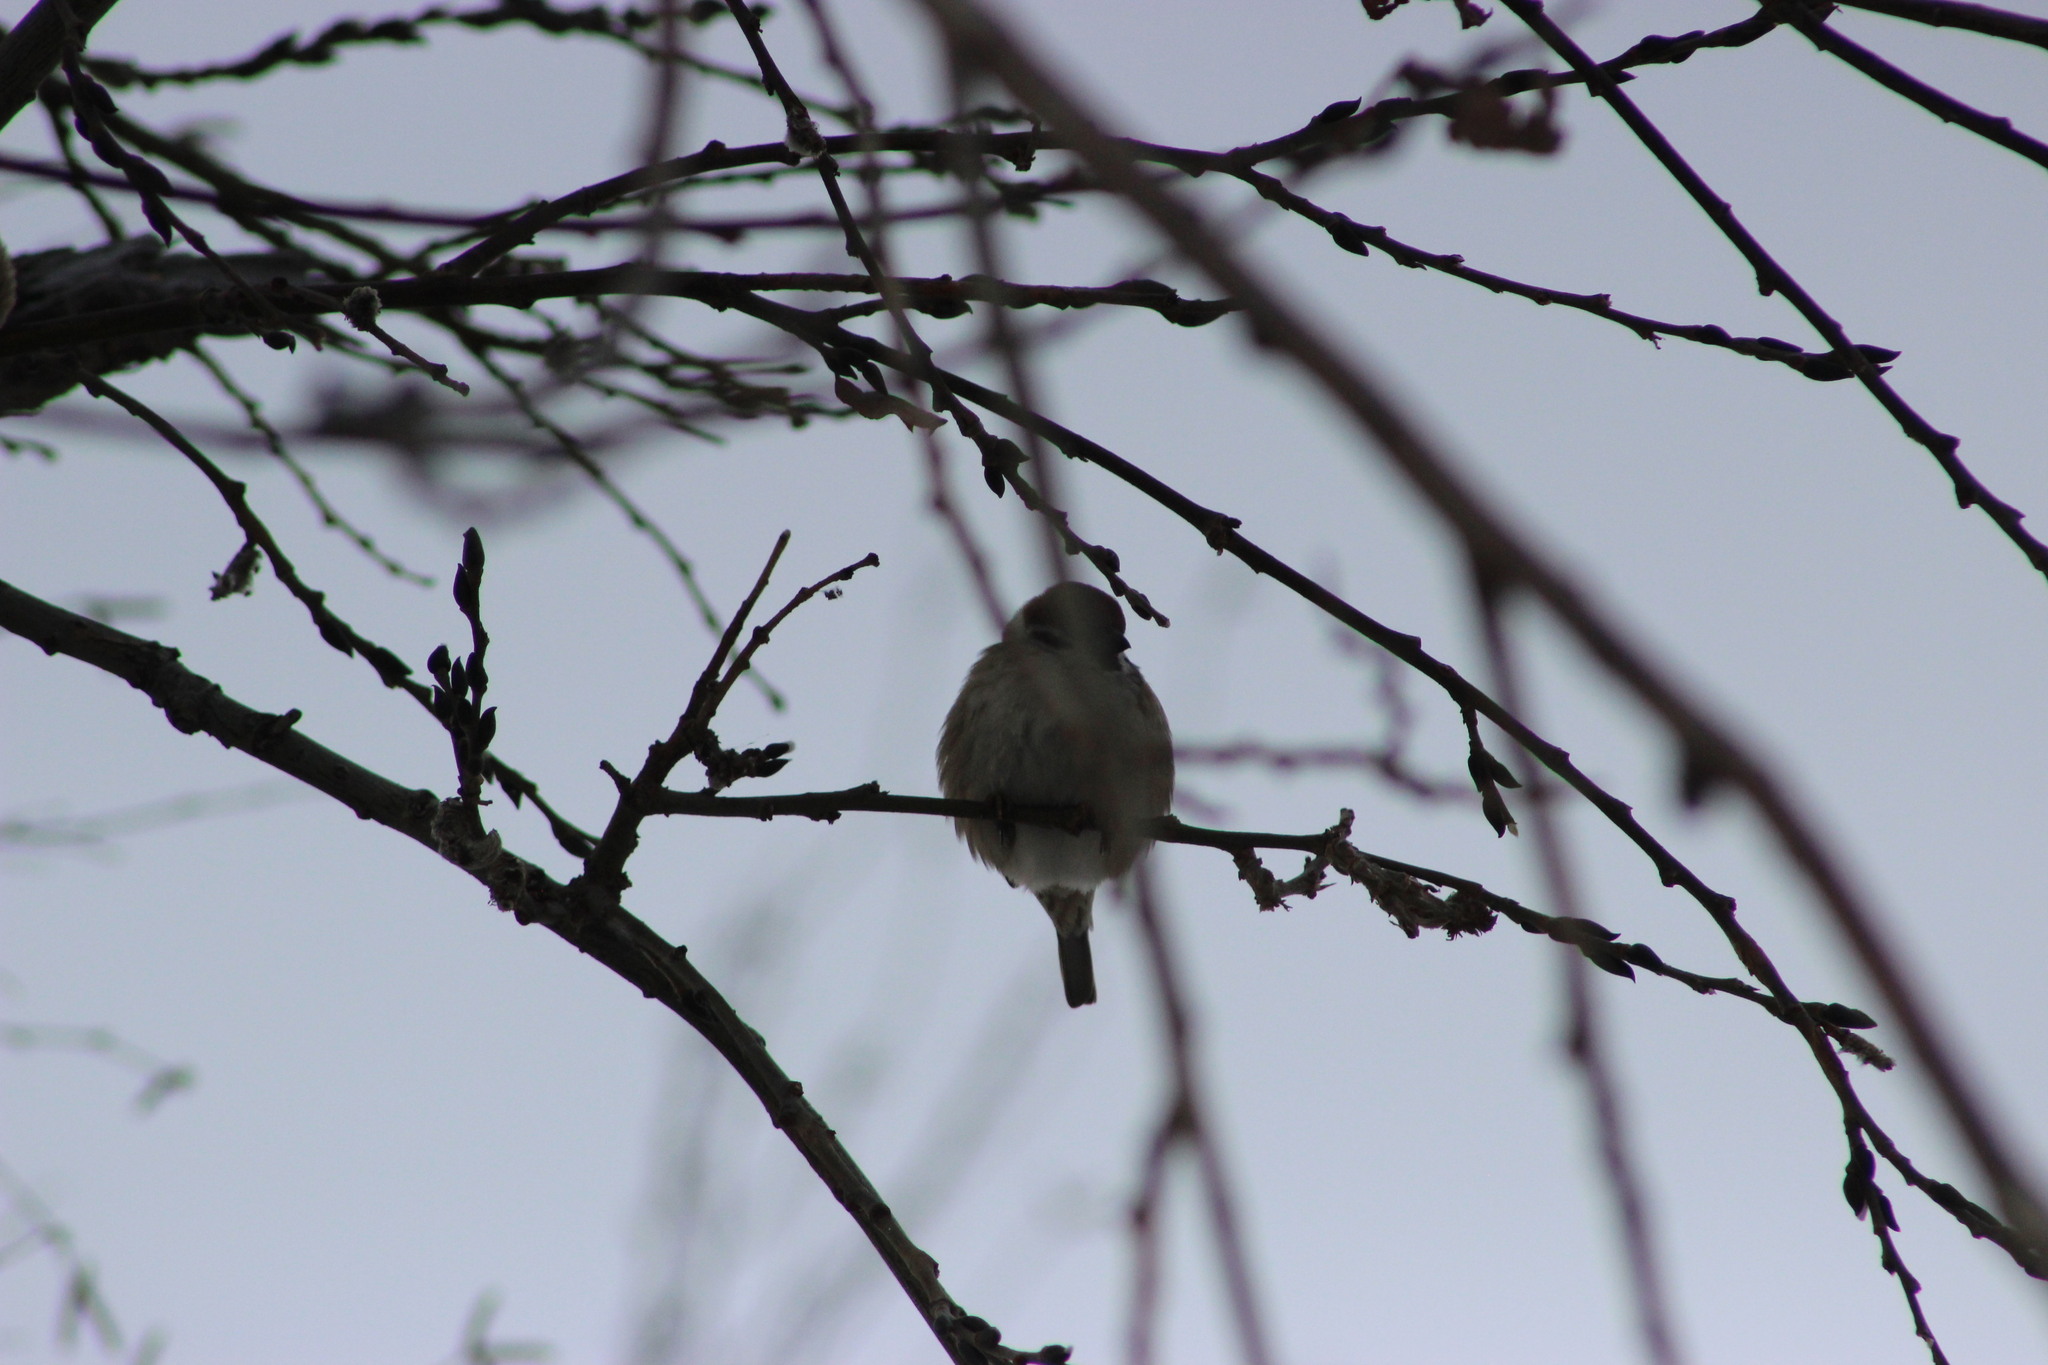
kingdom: Animalia
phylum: Chordata
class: Aves
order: Passeriformes
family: Passeridae
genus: Passer
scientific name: Passer montanus
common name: Eurasian tree sparrow
